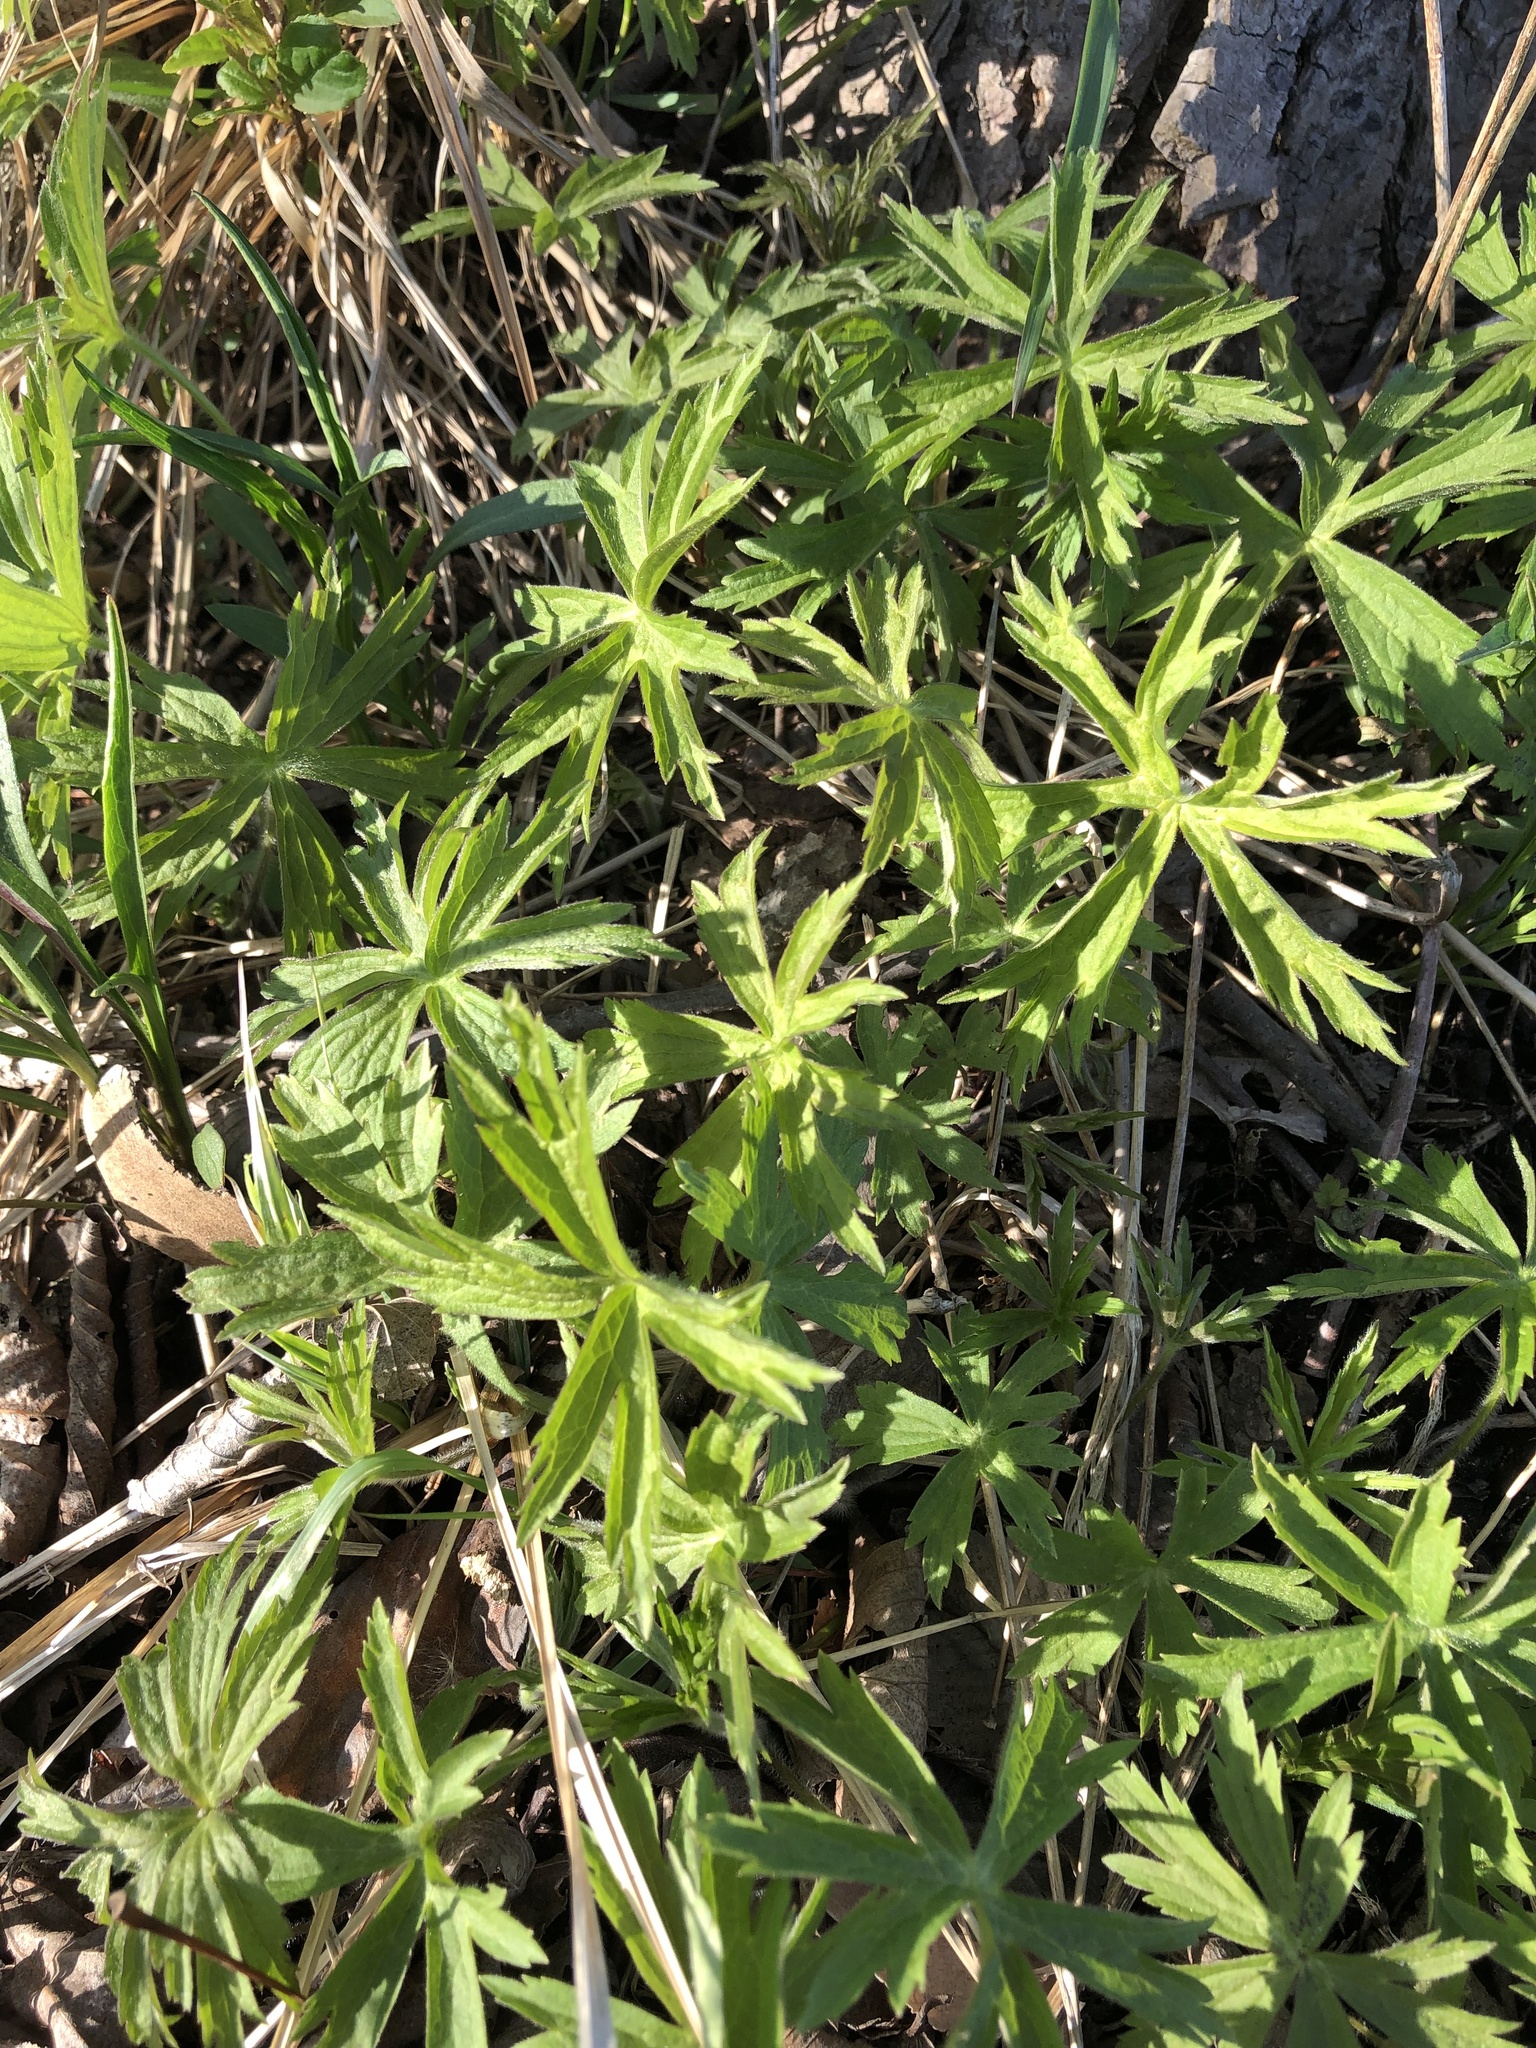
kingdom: Plantae
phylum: Tracheophyta
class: Magnoliopsida
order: Ranunculales
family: Ranunculaceae
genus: Anemonastrum
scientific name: Anemonastrum canadense
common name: Canada anemone
